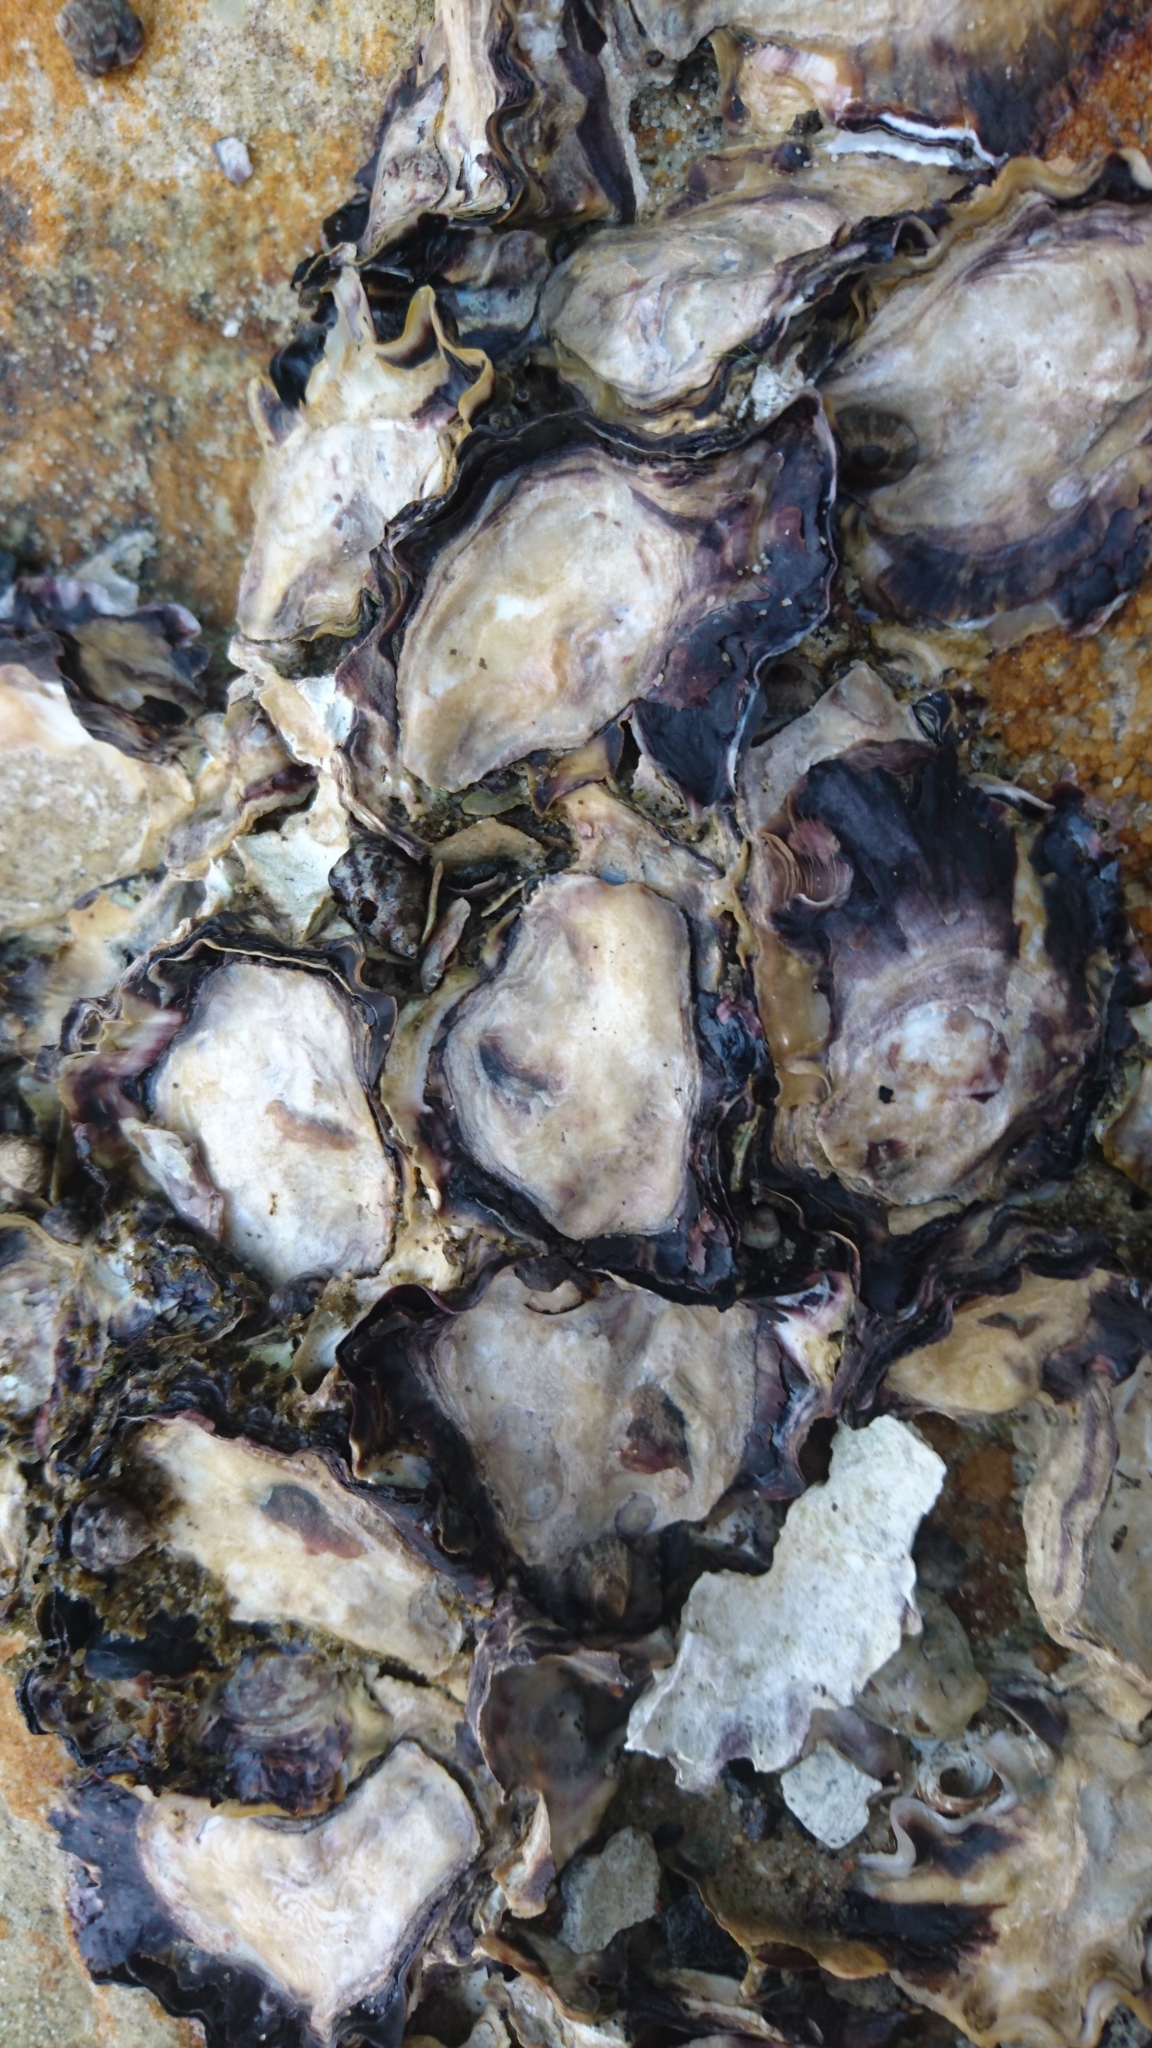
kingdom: Animalia
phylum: Mollusca
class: Bivalvia
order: Ostreida
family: Ostreidae
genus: Saccostrea
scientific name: Saccostrea glomerata
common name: Sydney cupped oyster
